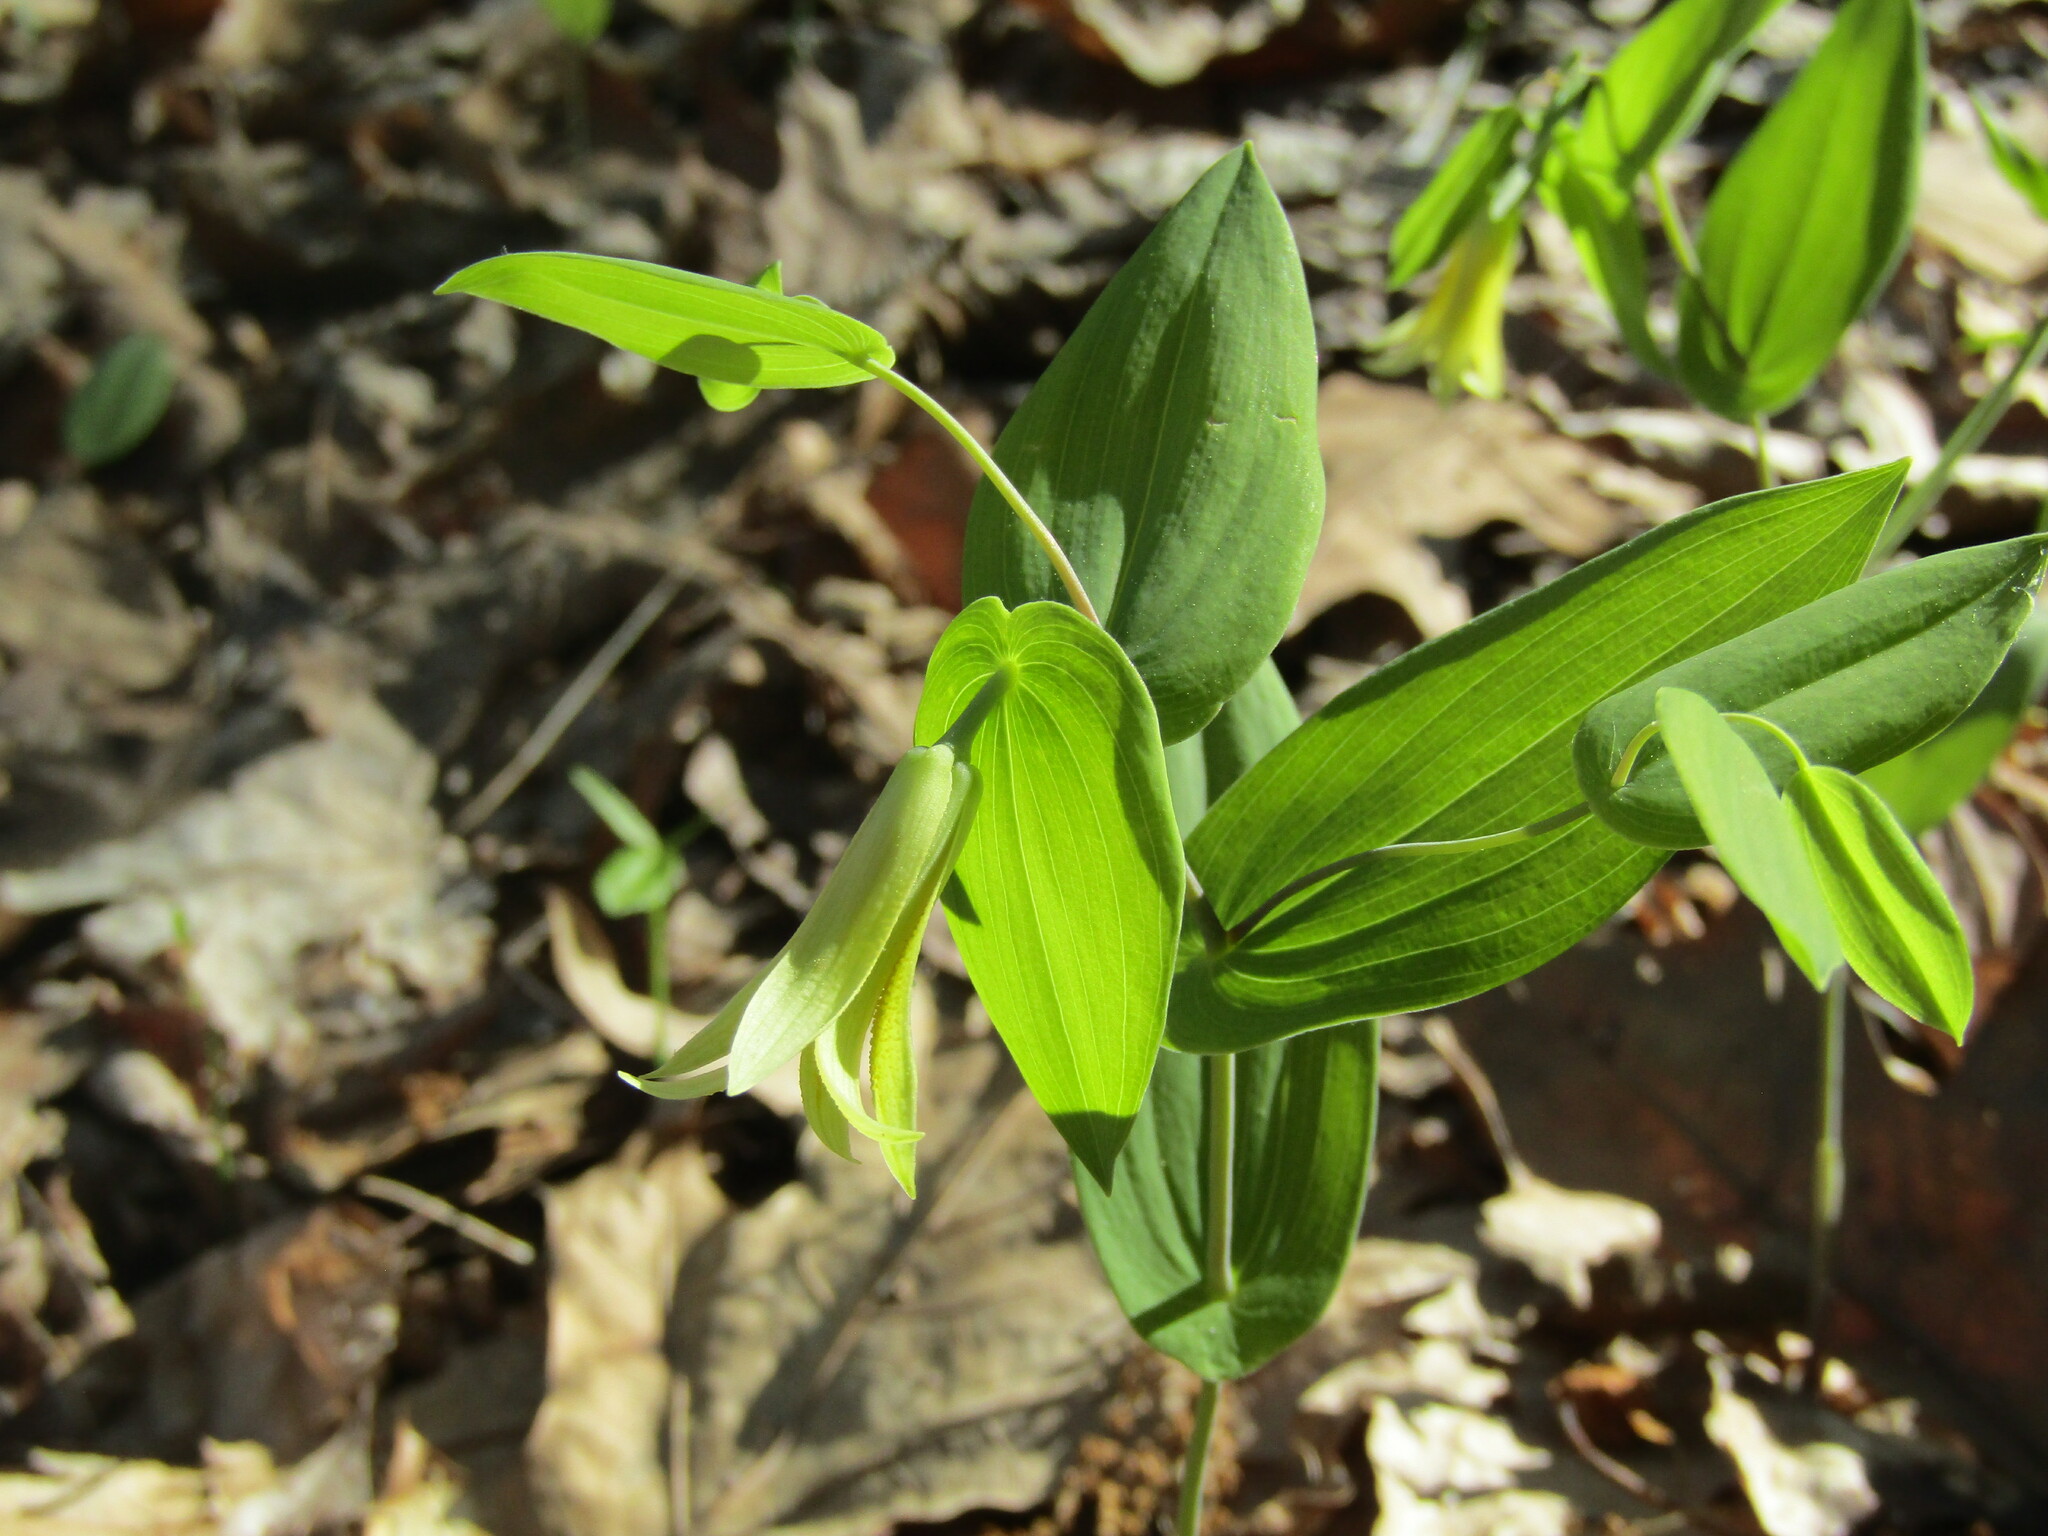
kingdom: Plantae
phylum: Tracheophyta
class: Liliopsida
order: Liliales
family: Colchicaceae
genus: Uvularia
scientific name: Uvularia perfoliata
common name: Perfoliate bellwort
